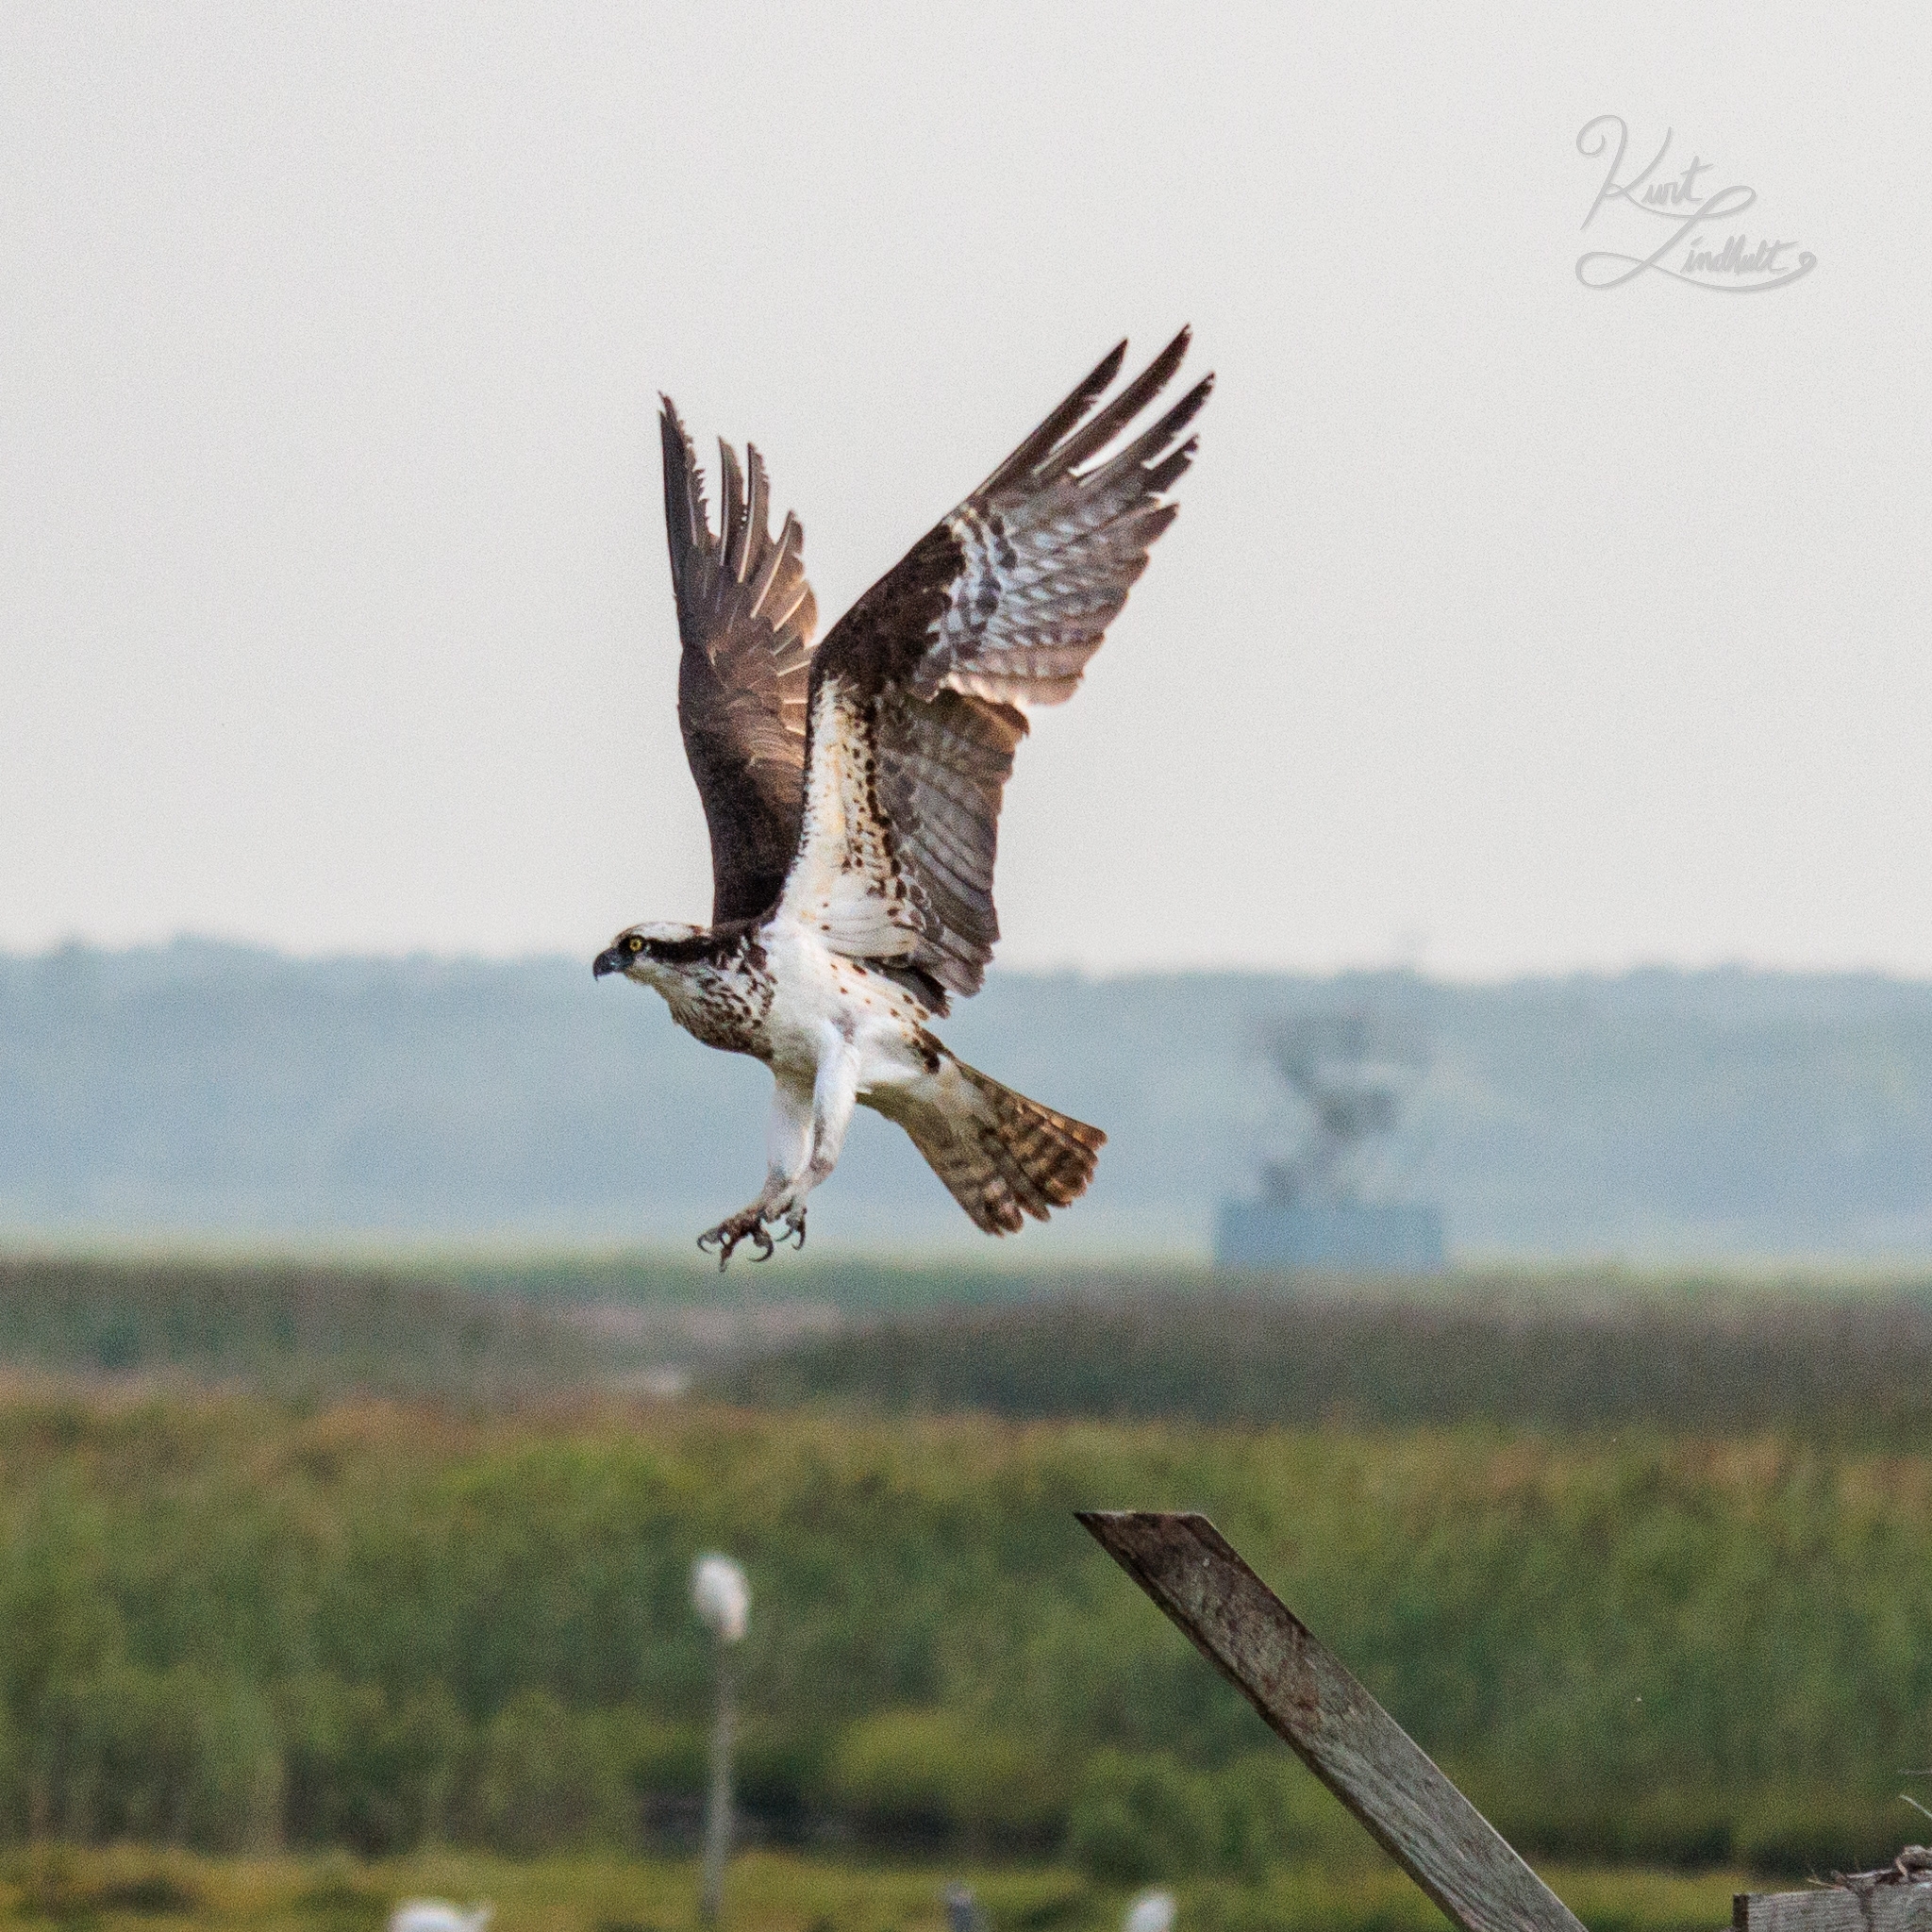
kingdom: Animalia
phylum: Chordata
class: Aves
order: Accipitriformes
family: Pandionidae
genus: Pandion
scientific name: Pandion haliaetus
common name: Osprey
